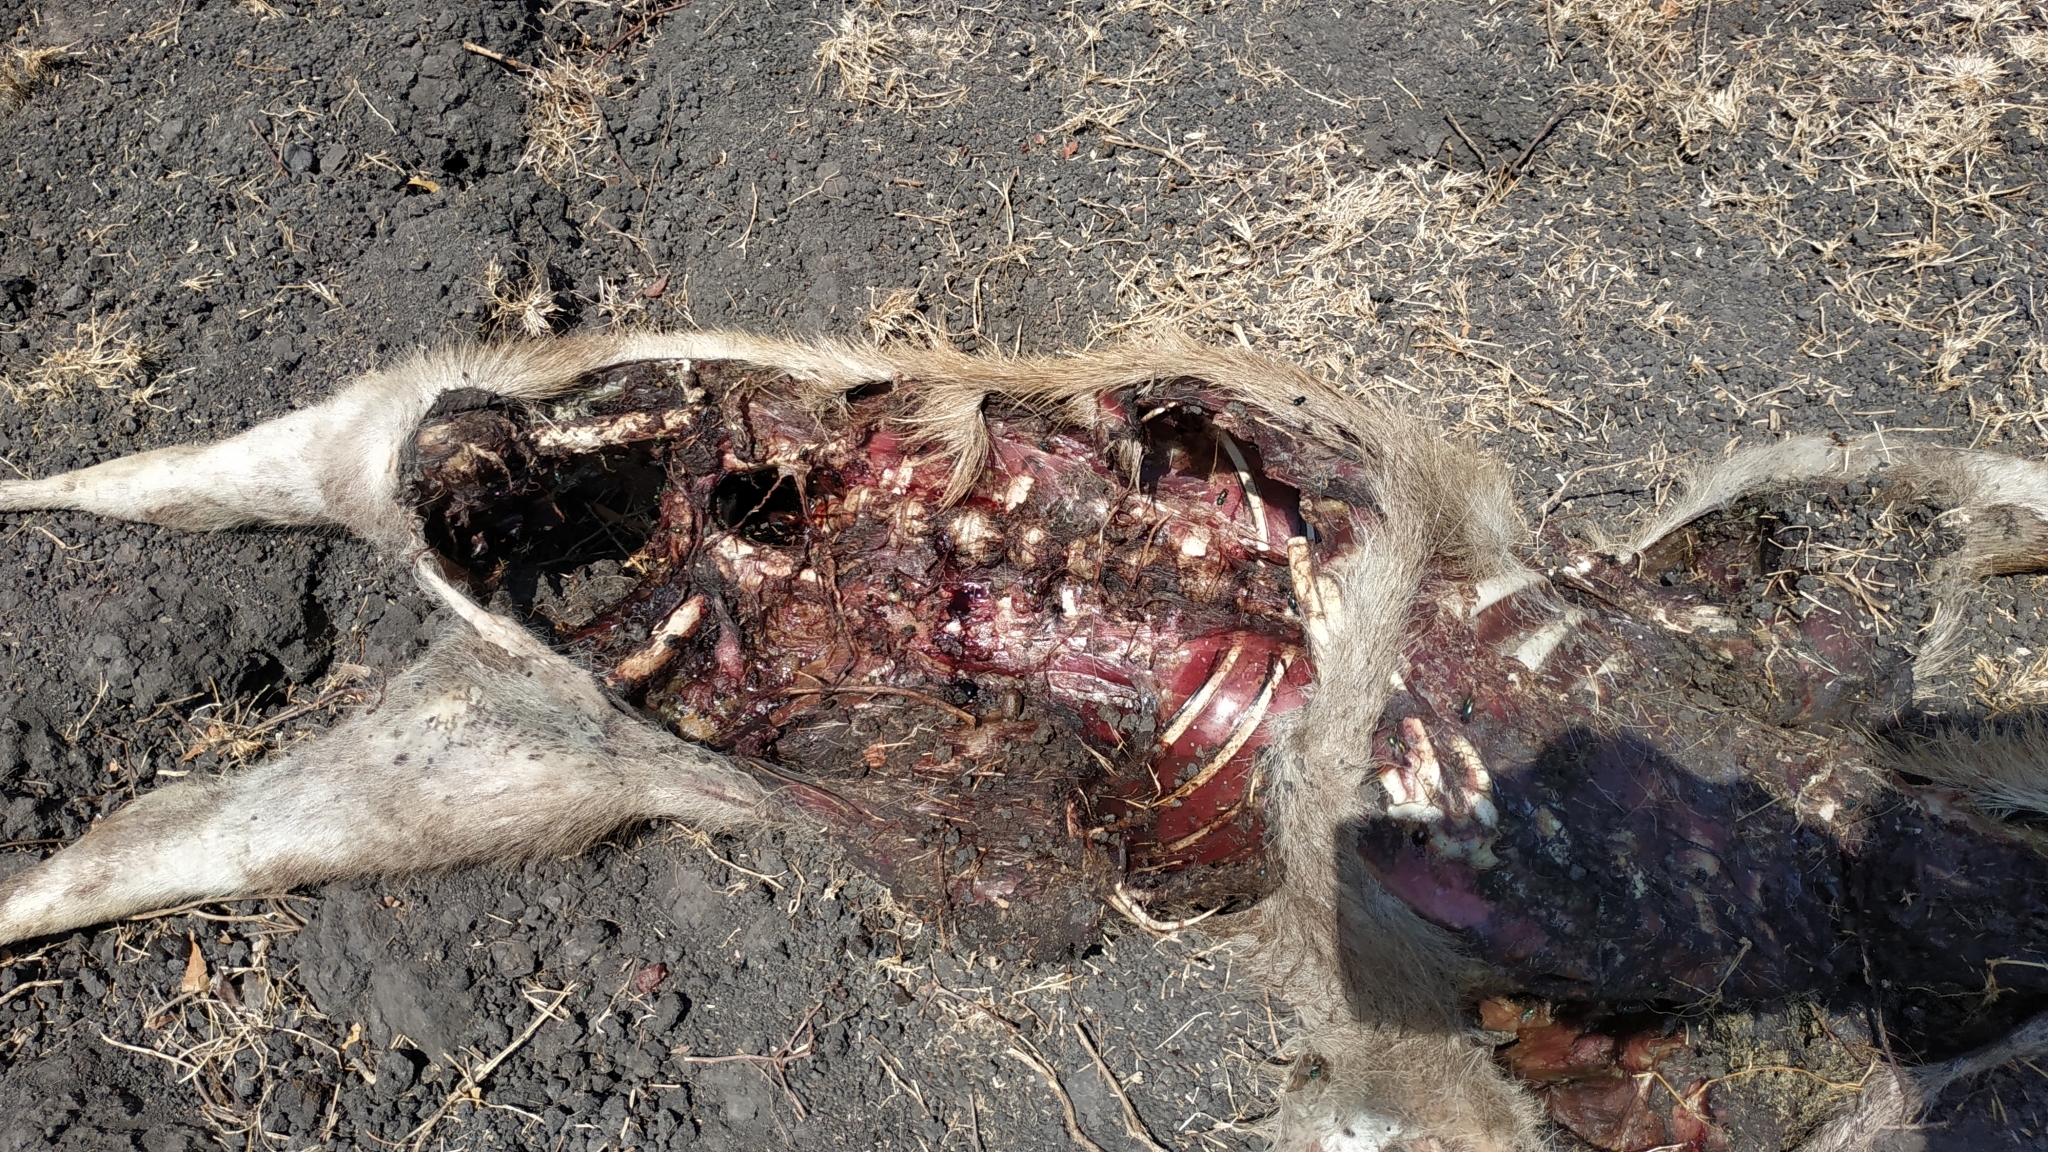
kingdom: Animalia
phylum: Chordata
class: Mammalia
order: Artiodactyla
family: Cervidae
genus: Rusa
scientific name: Rusa timorensis
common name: Javan rusa
